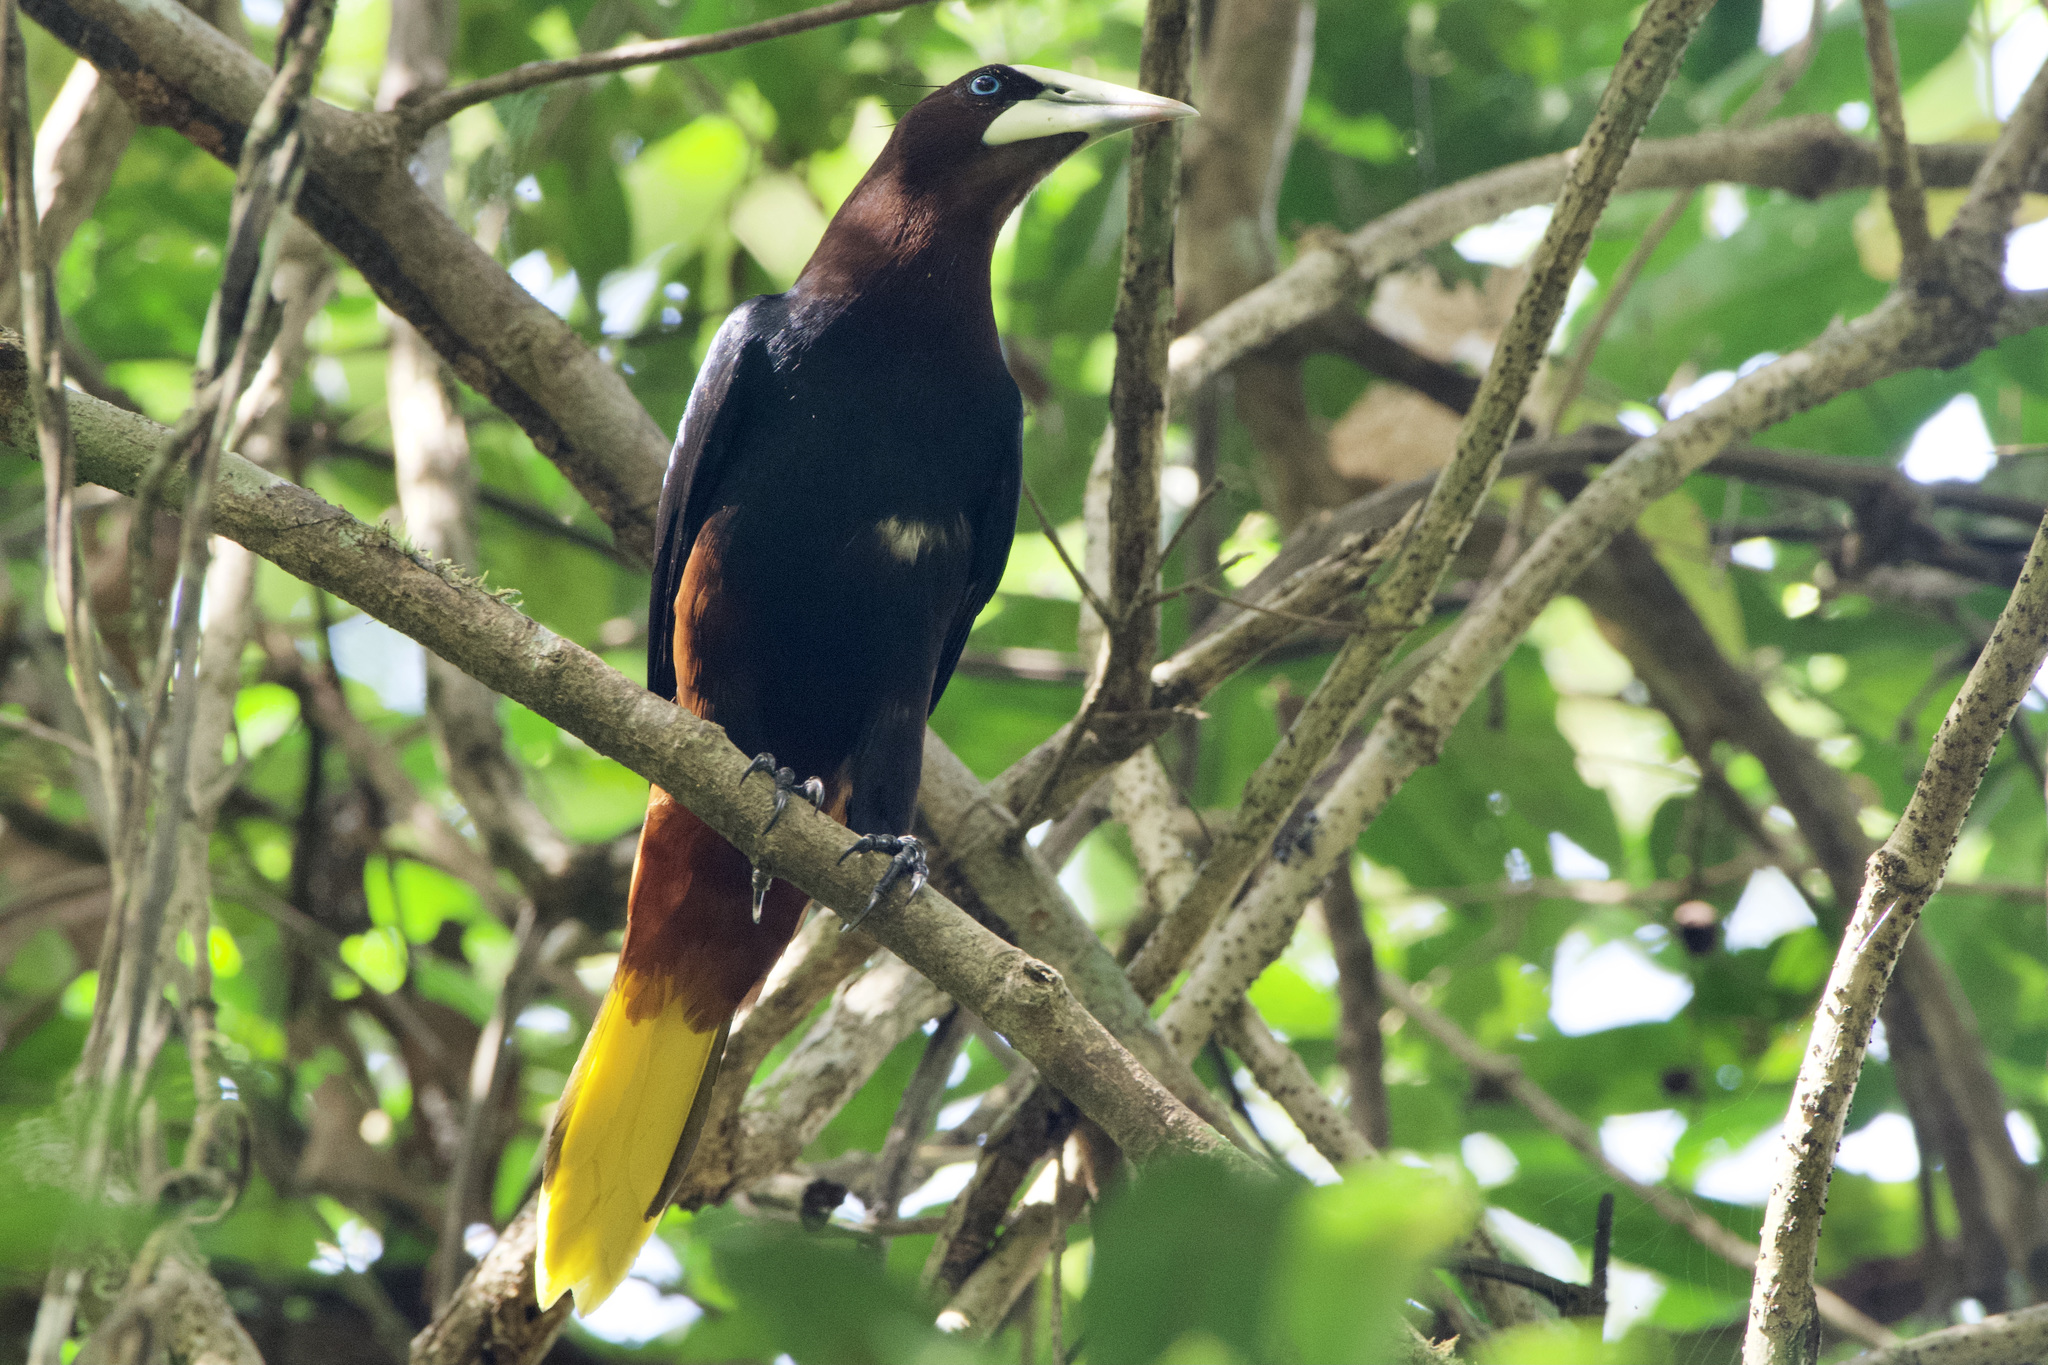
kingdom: Animalia
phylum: Chordata
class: Aves
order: Passeriformes
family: Icteridae
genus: Psarocolius
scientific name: Psarocolius wagleri
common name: Chestnut-headed oropendola
